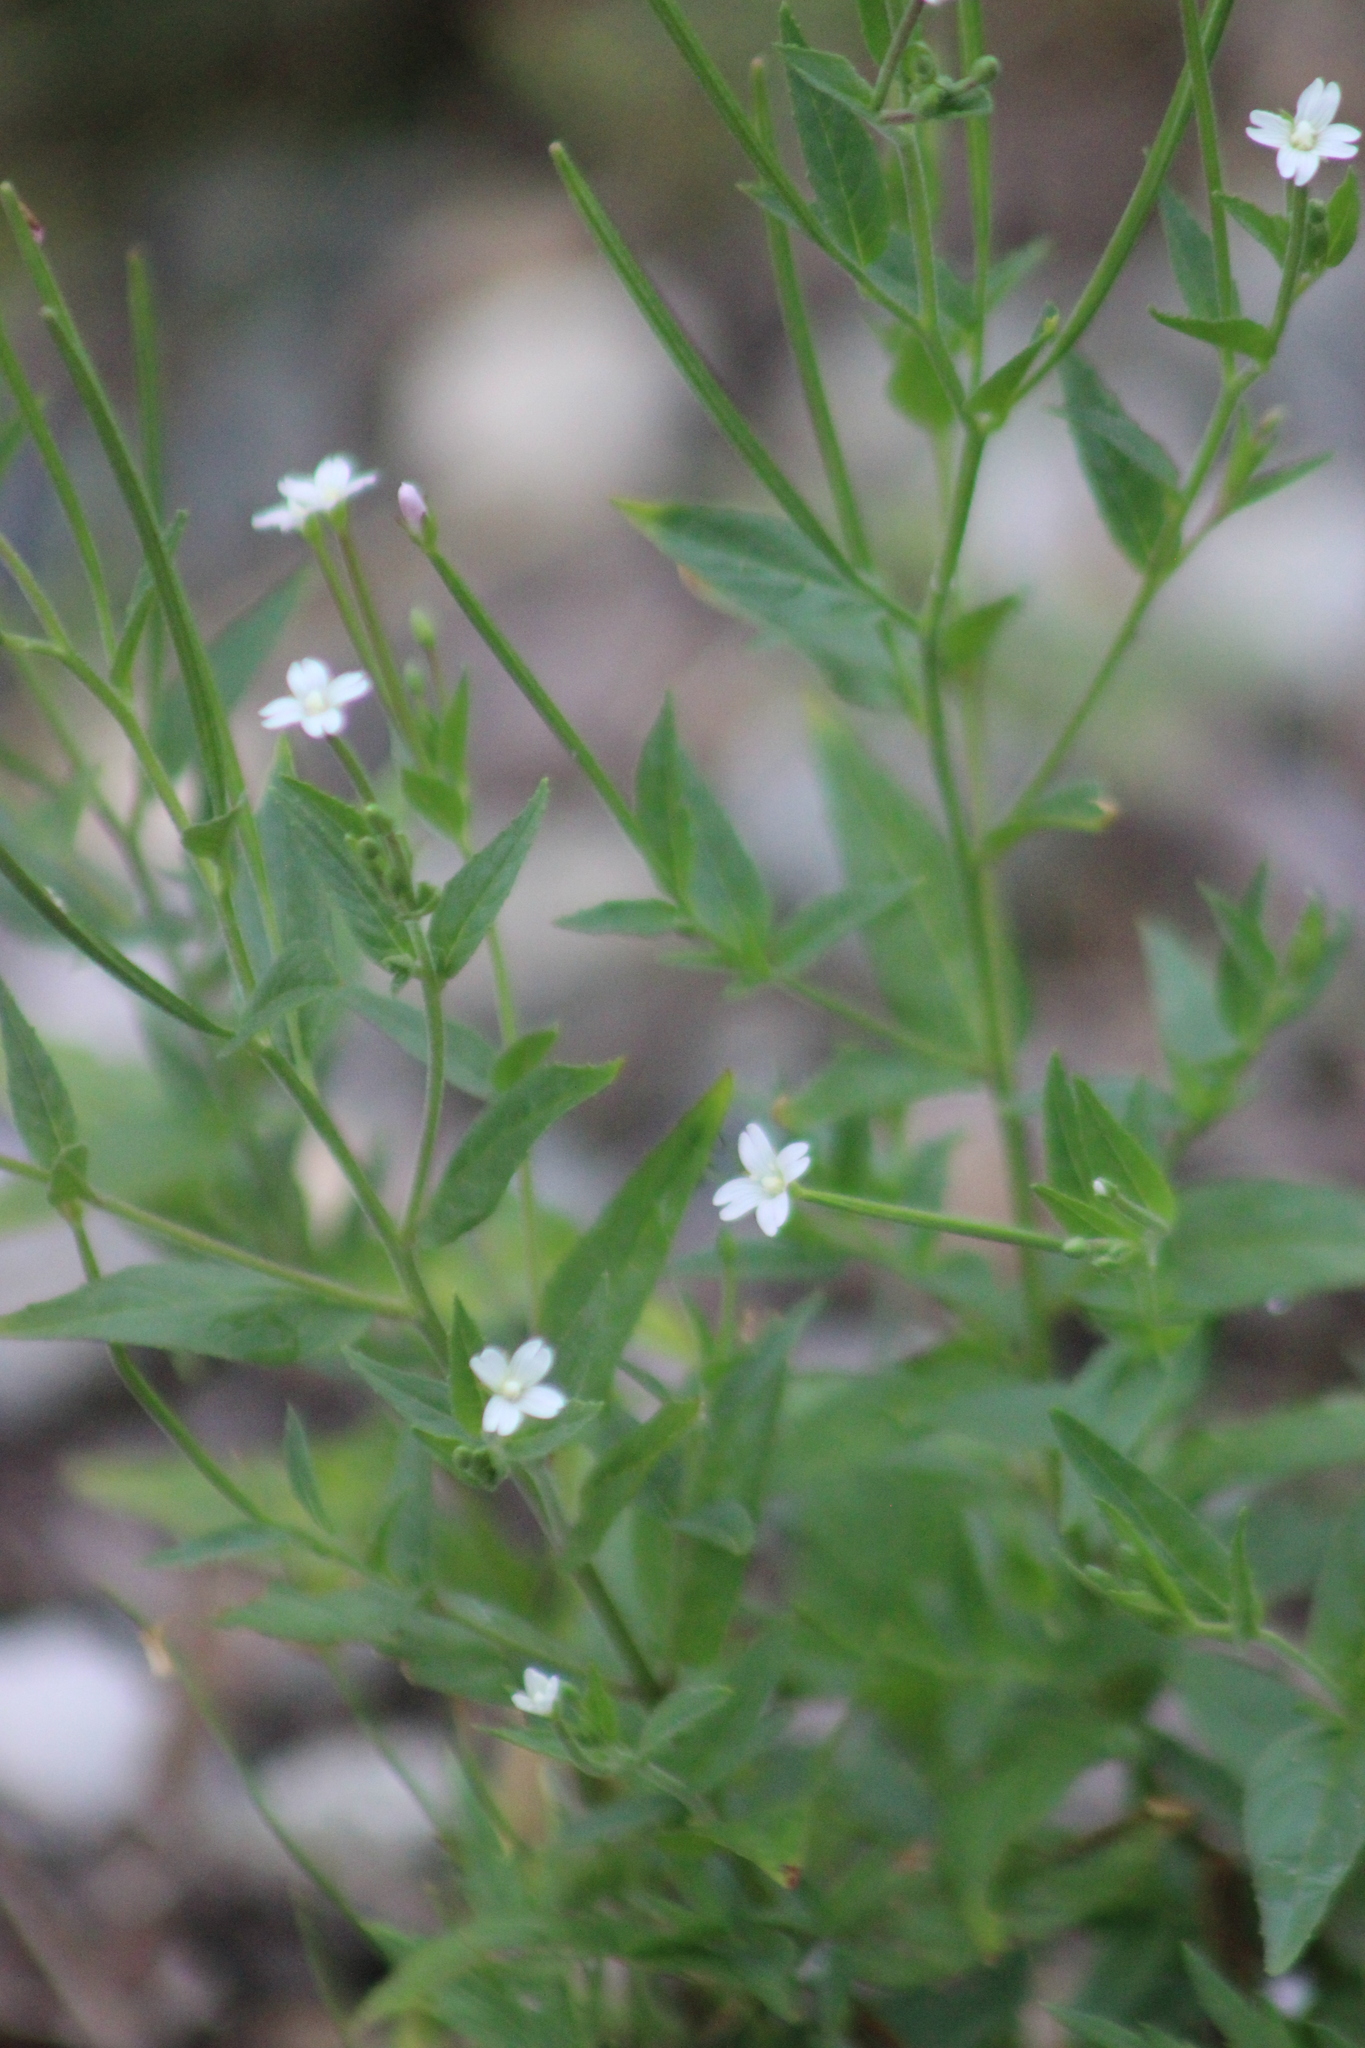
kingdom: Plantae
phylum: Tracheophyta
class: Magnoliopsida
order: Myrtales
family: Onagraceae
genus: Epilobium
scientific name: Epilobium pseudorubescens
